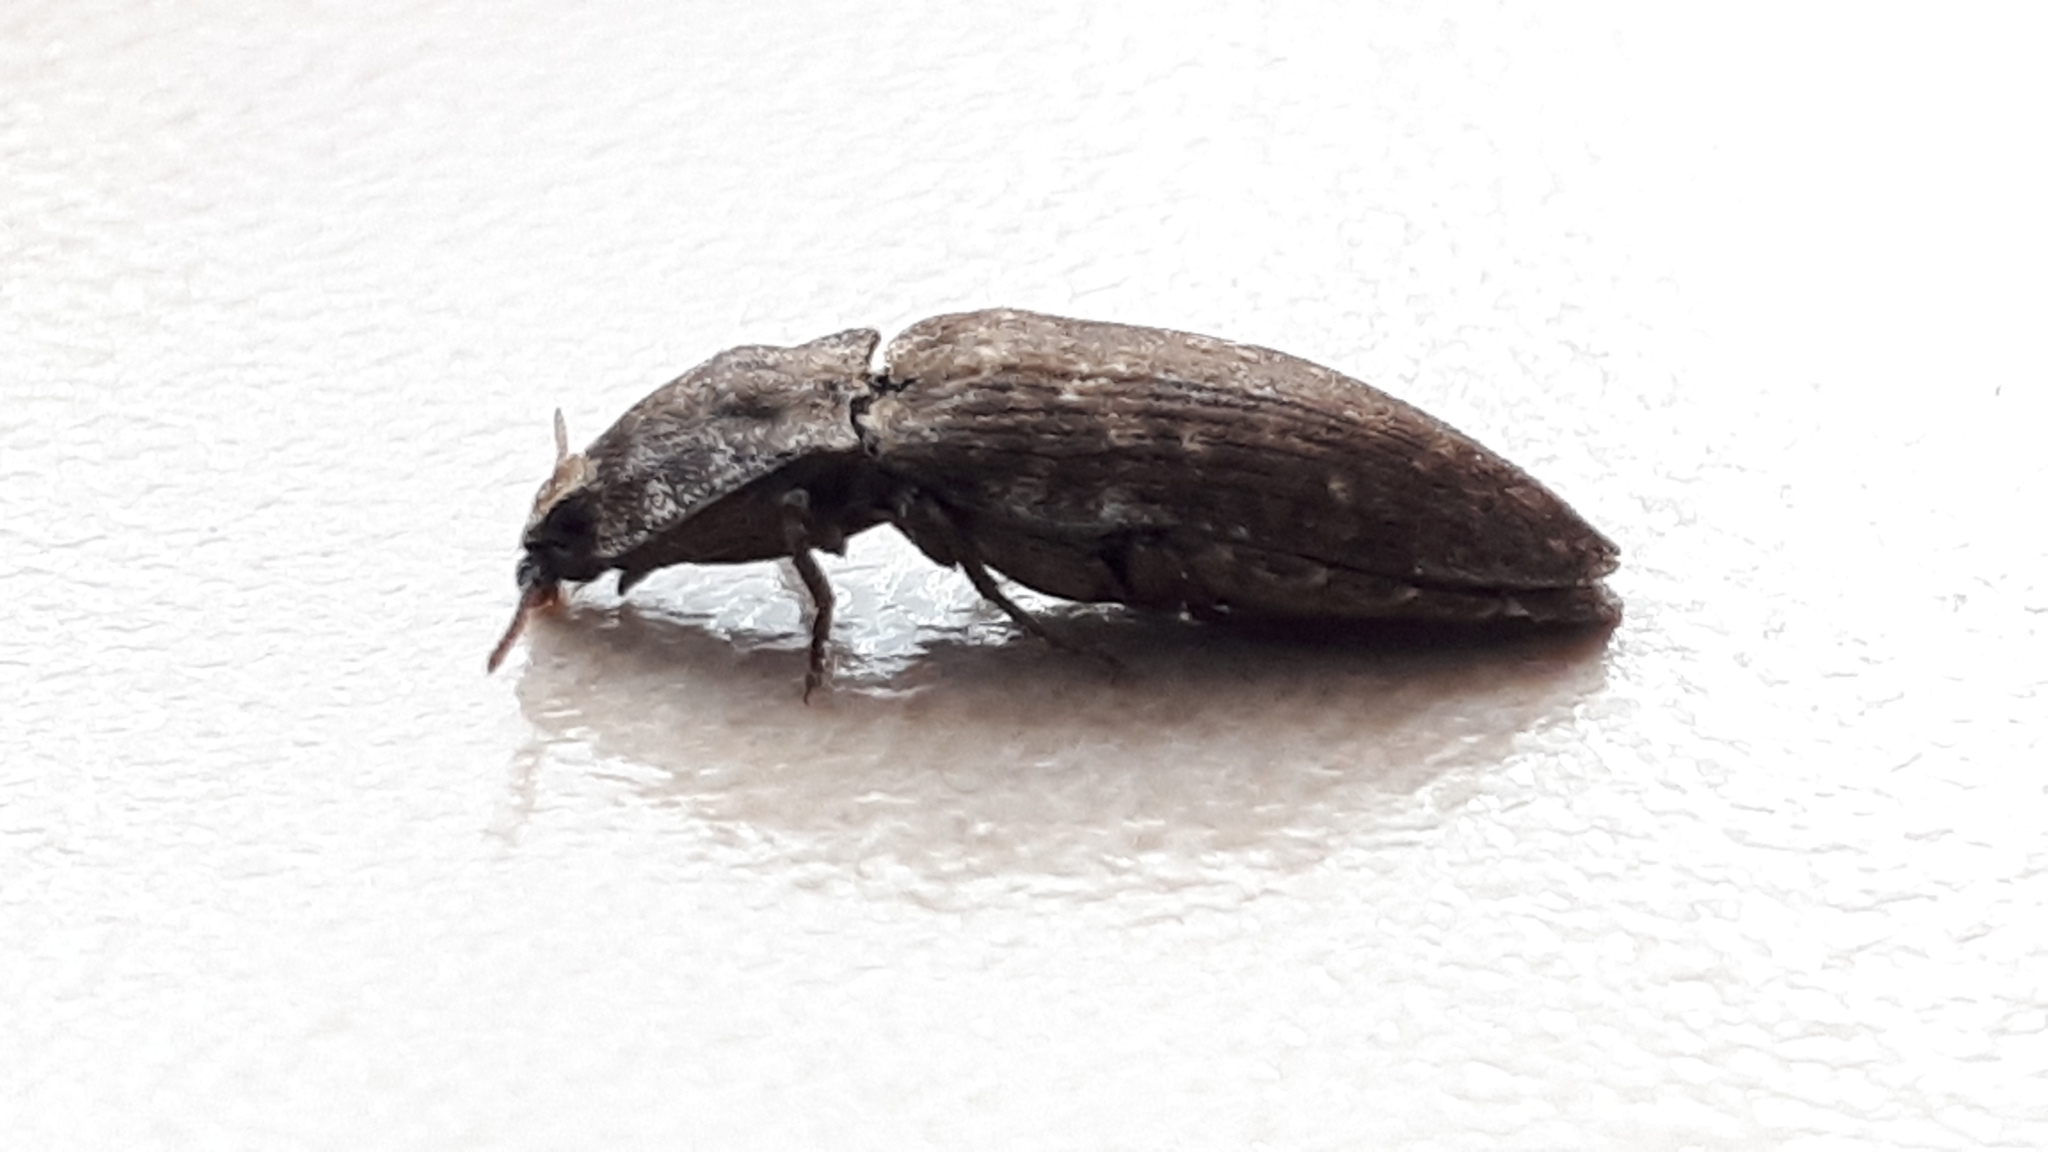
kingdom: Animalia
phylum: Arthropoda
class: Insecta
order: Coleoptera
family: Elateridae
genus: Agrypnus
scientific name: Agrypnus murinus
